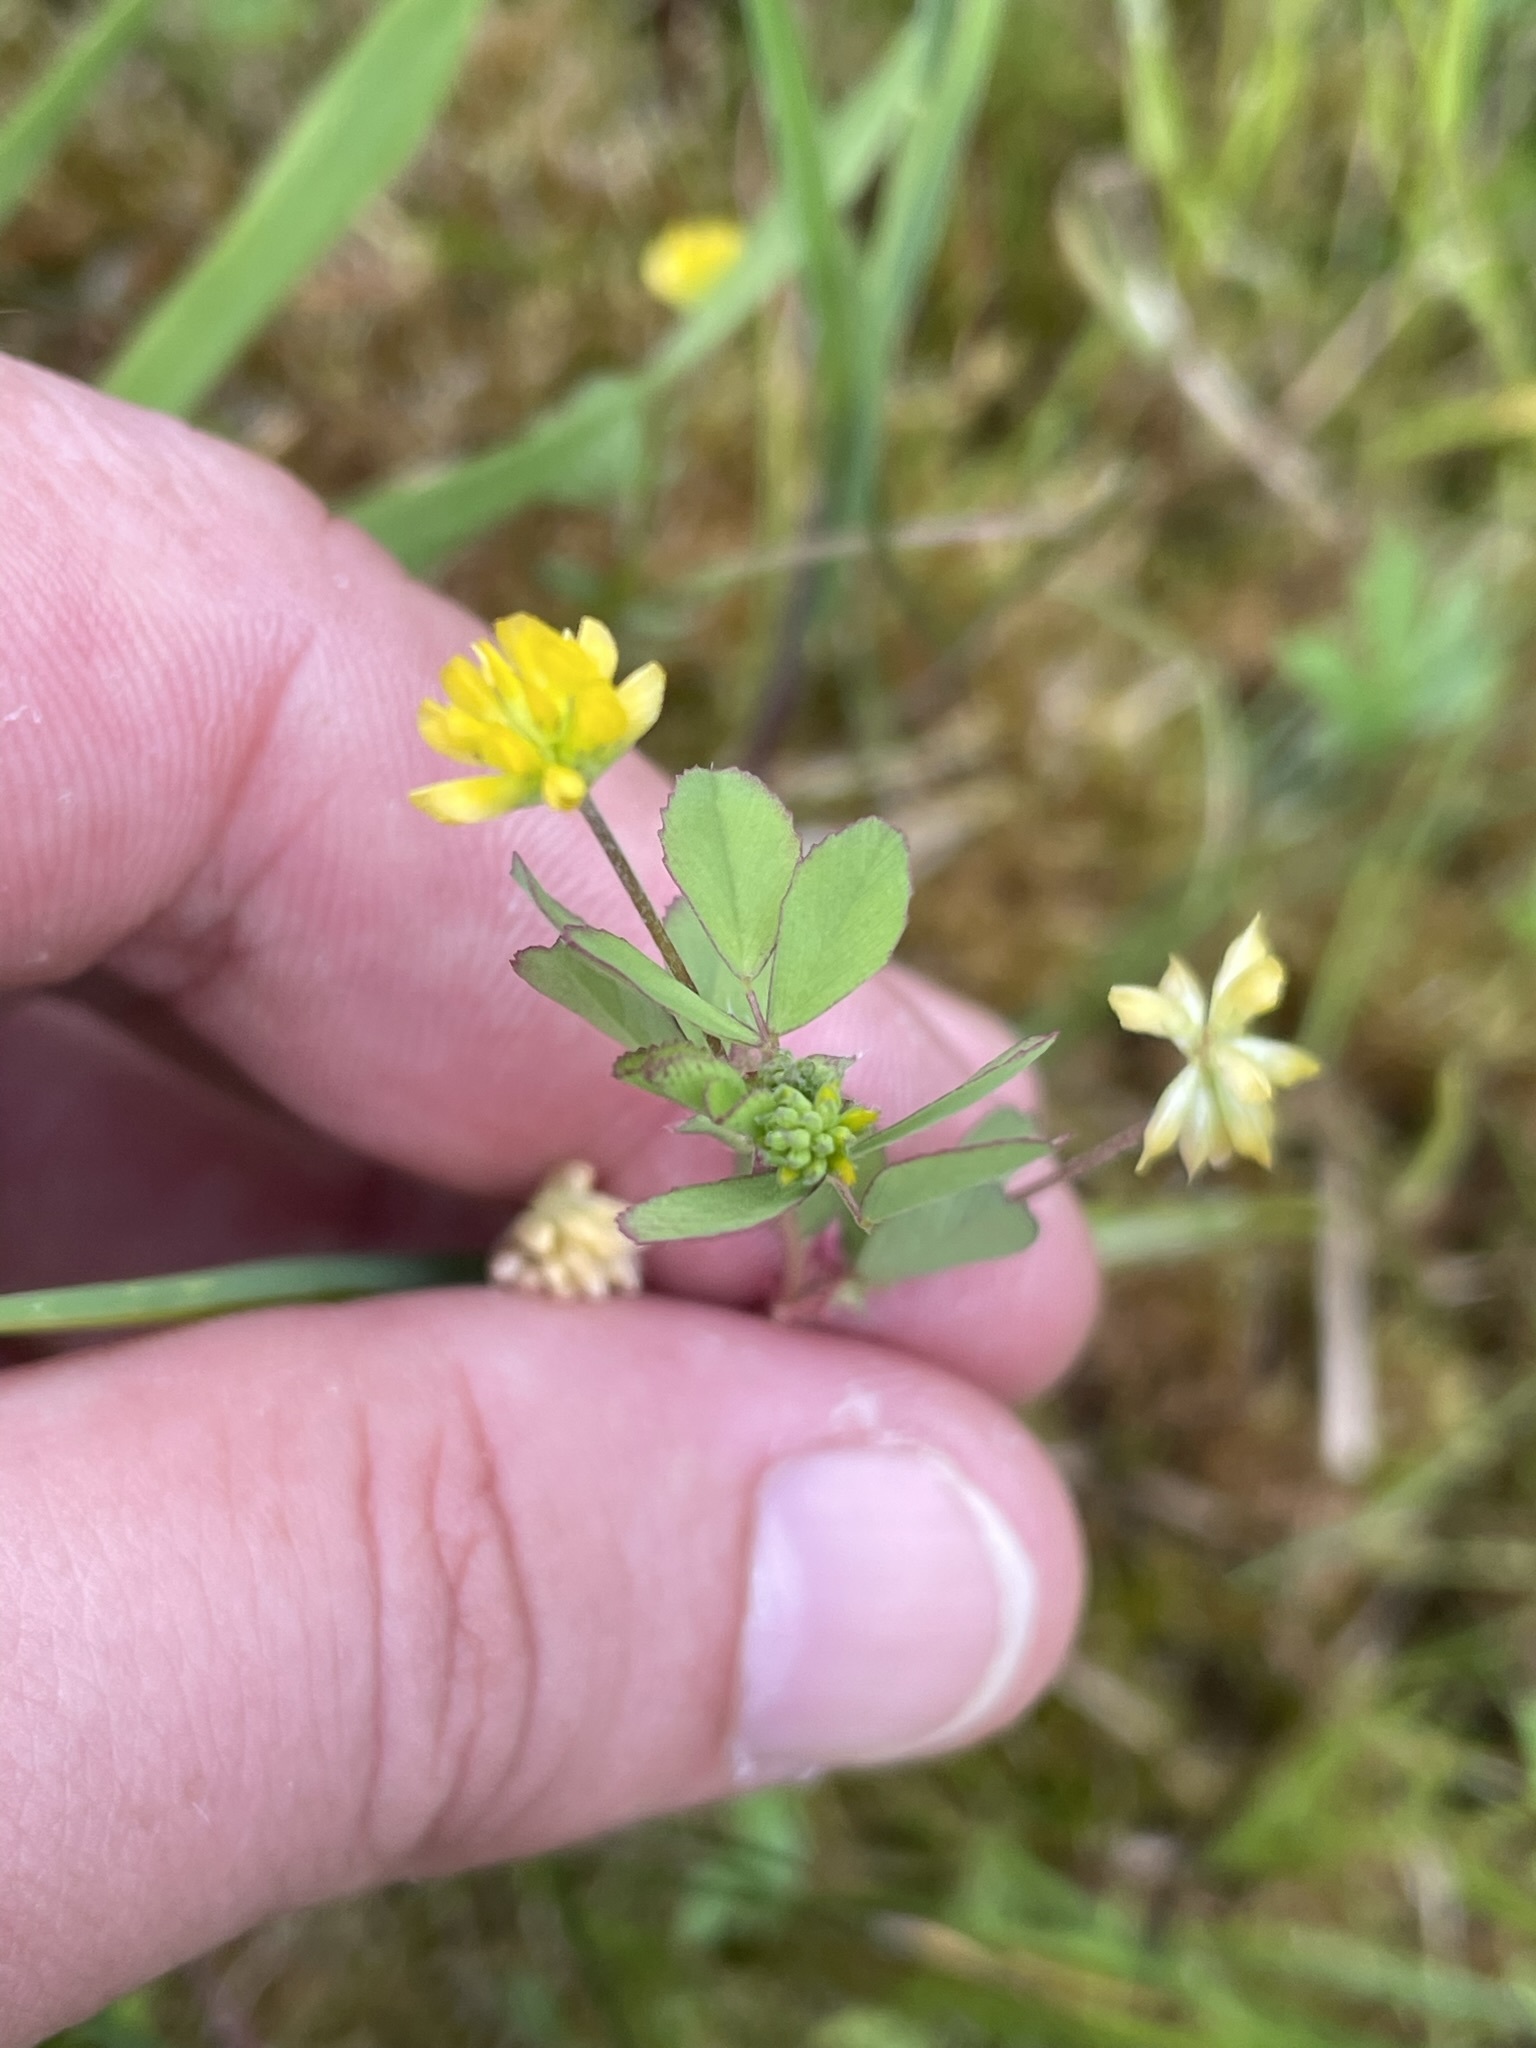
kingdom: Plantae
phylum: Tracheophyta
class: Magnoliopsida
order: Fabales
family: Fabaceae
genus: Trifolium
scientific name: Trifolium dubium
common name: Suckling clover
